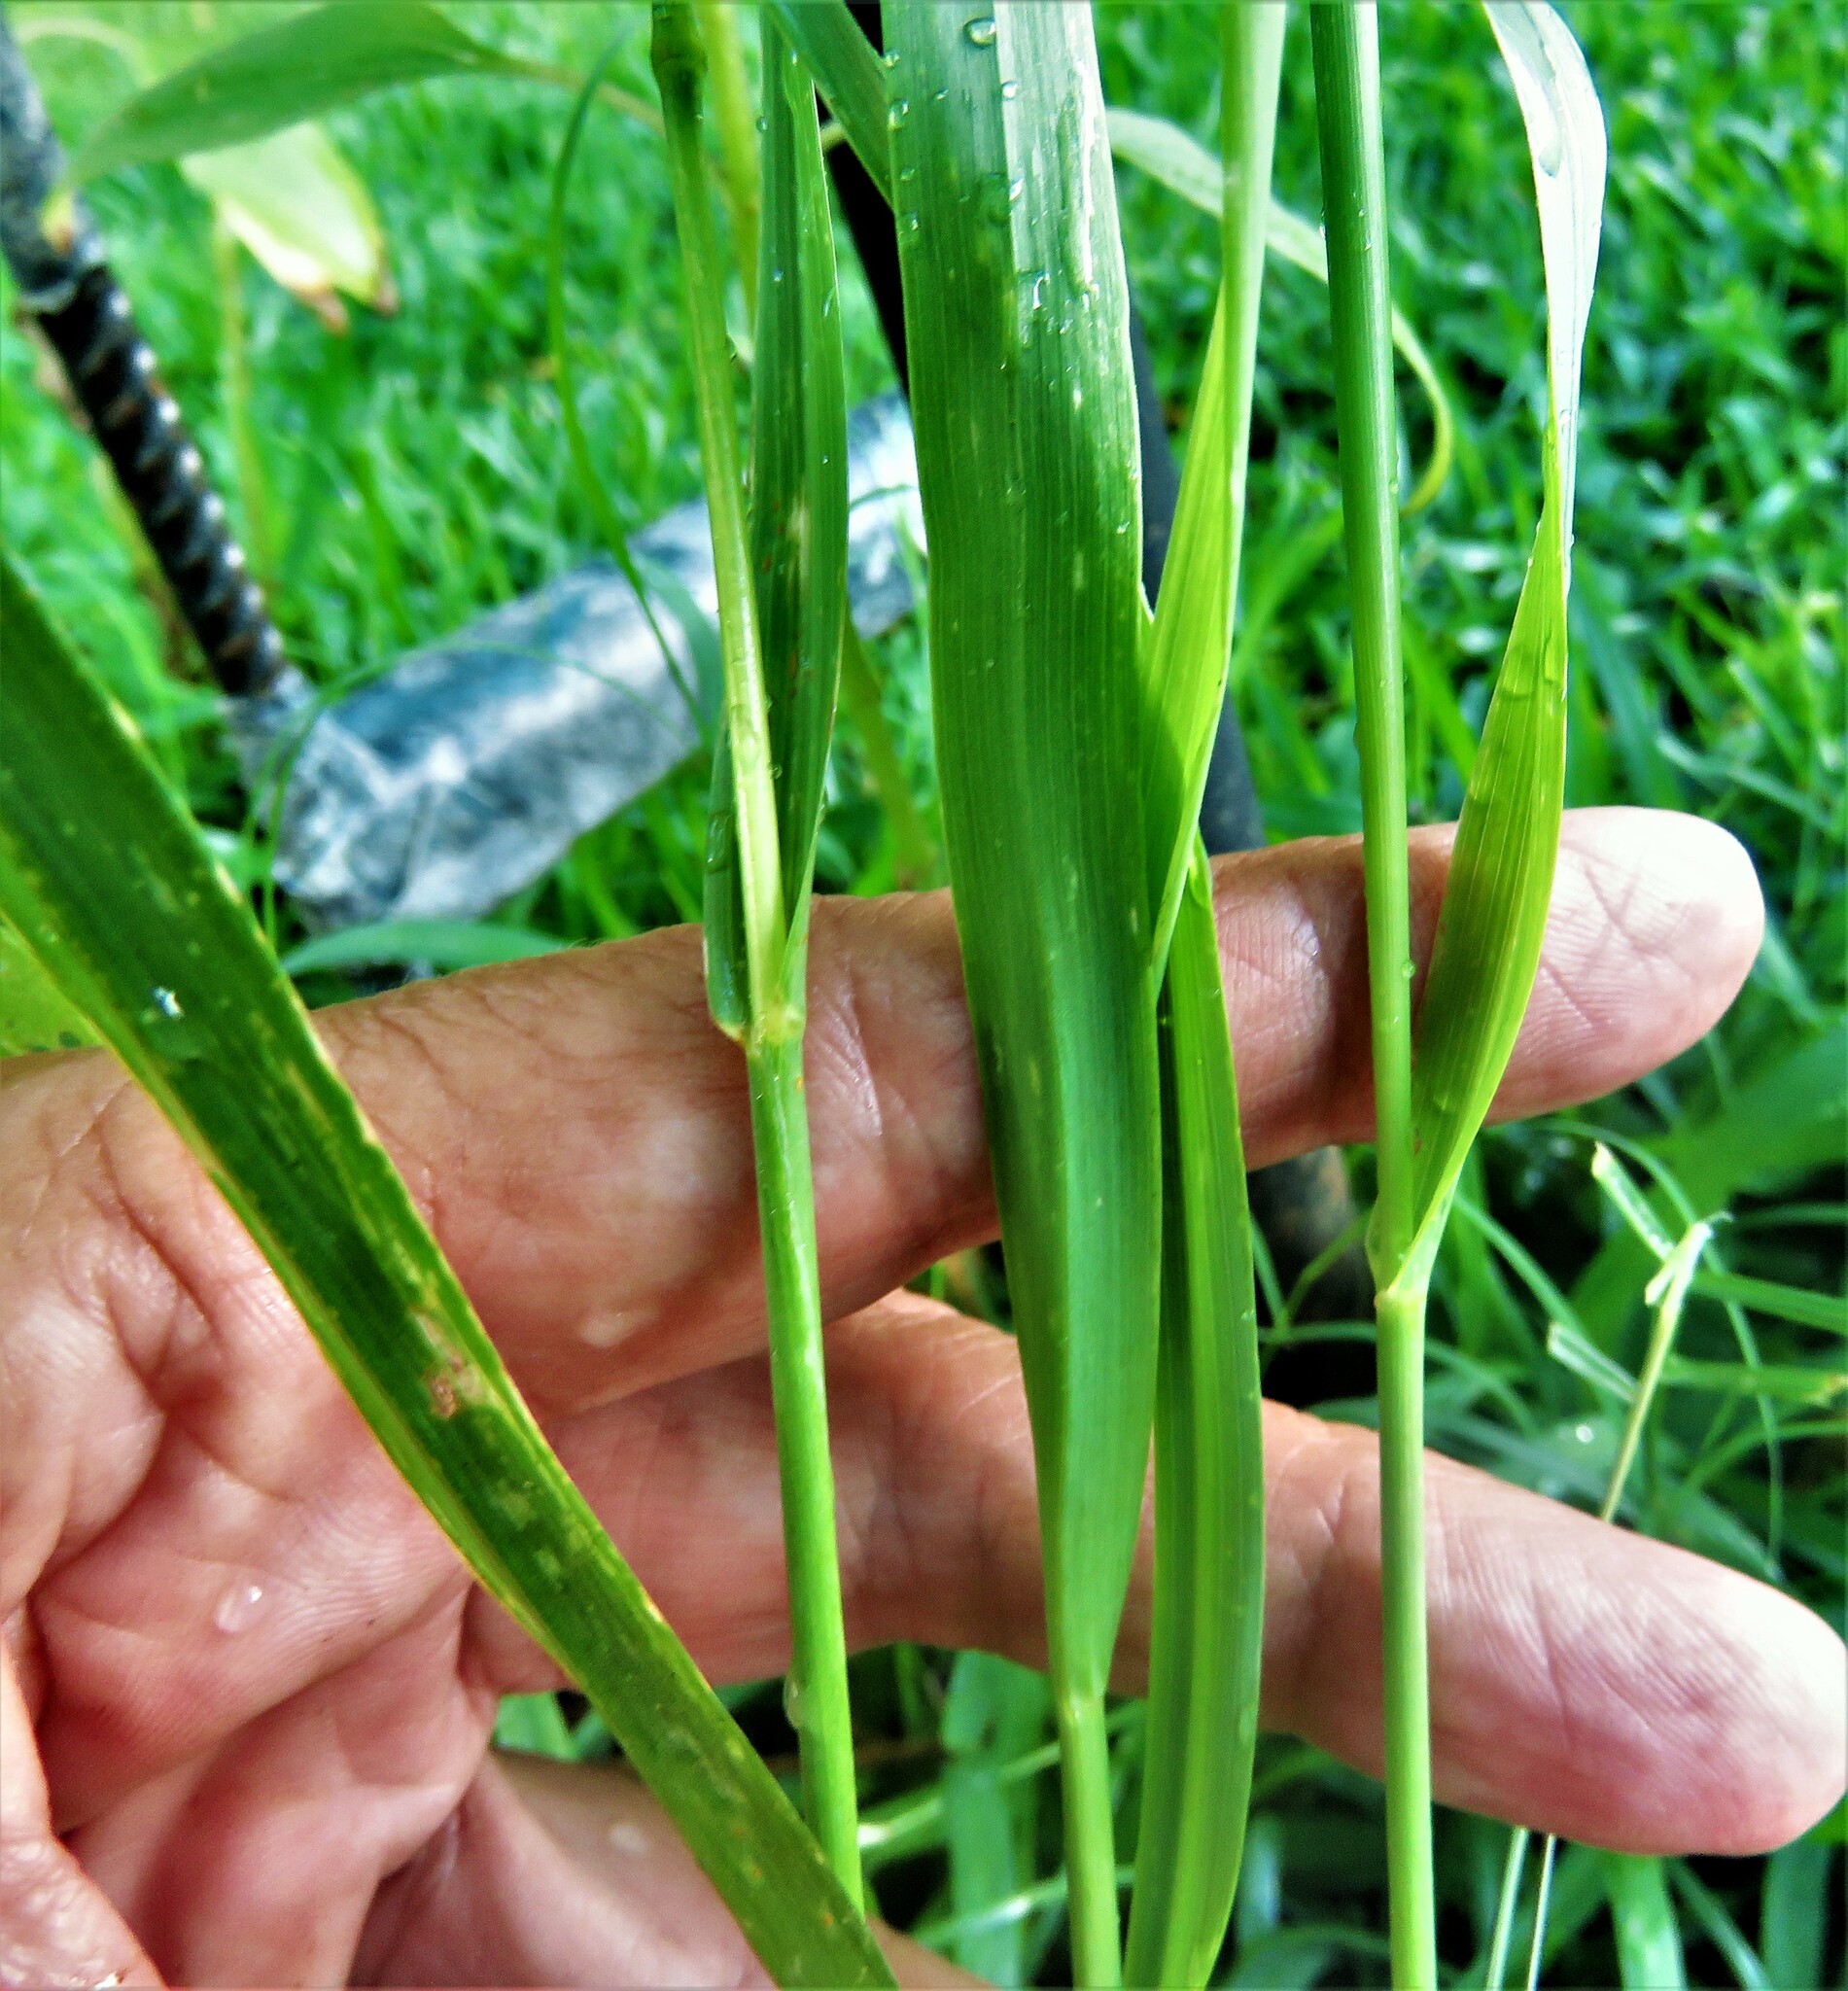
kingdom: Plantae
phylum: Tracheophyta
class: Liliopsida
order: Poales
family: Poaceae
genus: Avena
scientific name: Avena fatua
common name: Wild oat
